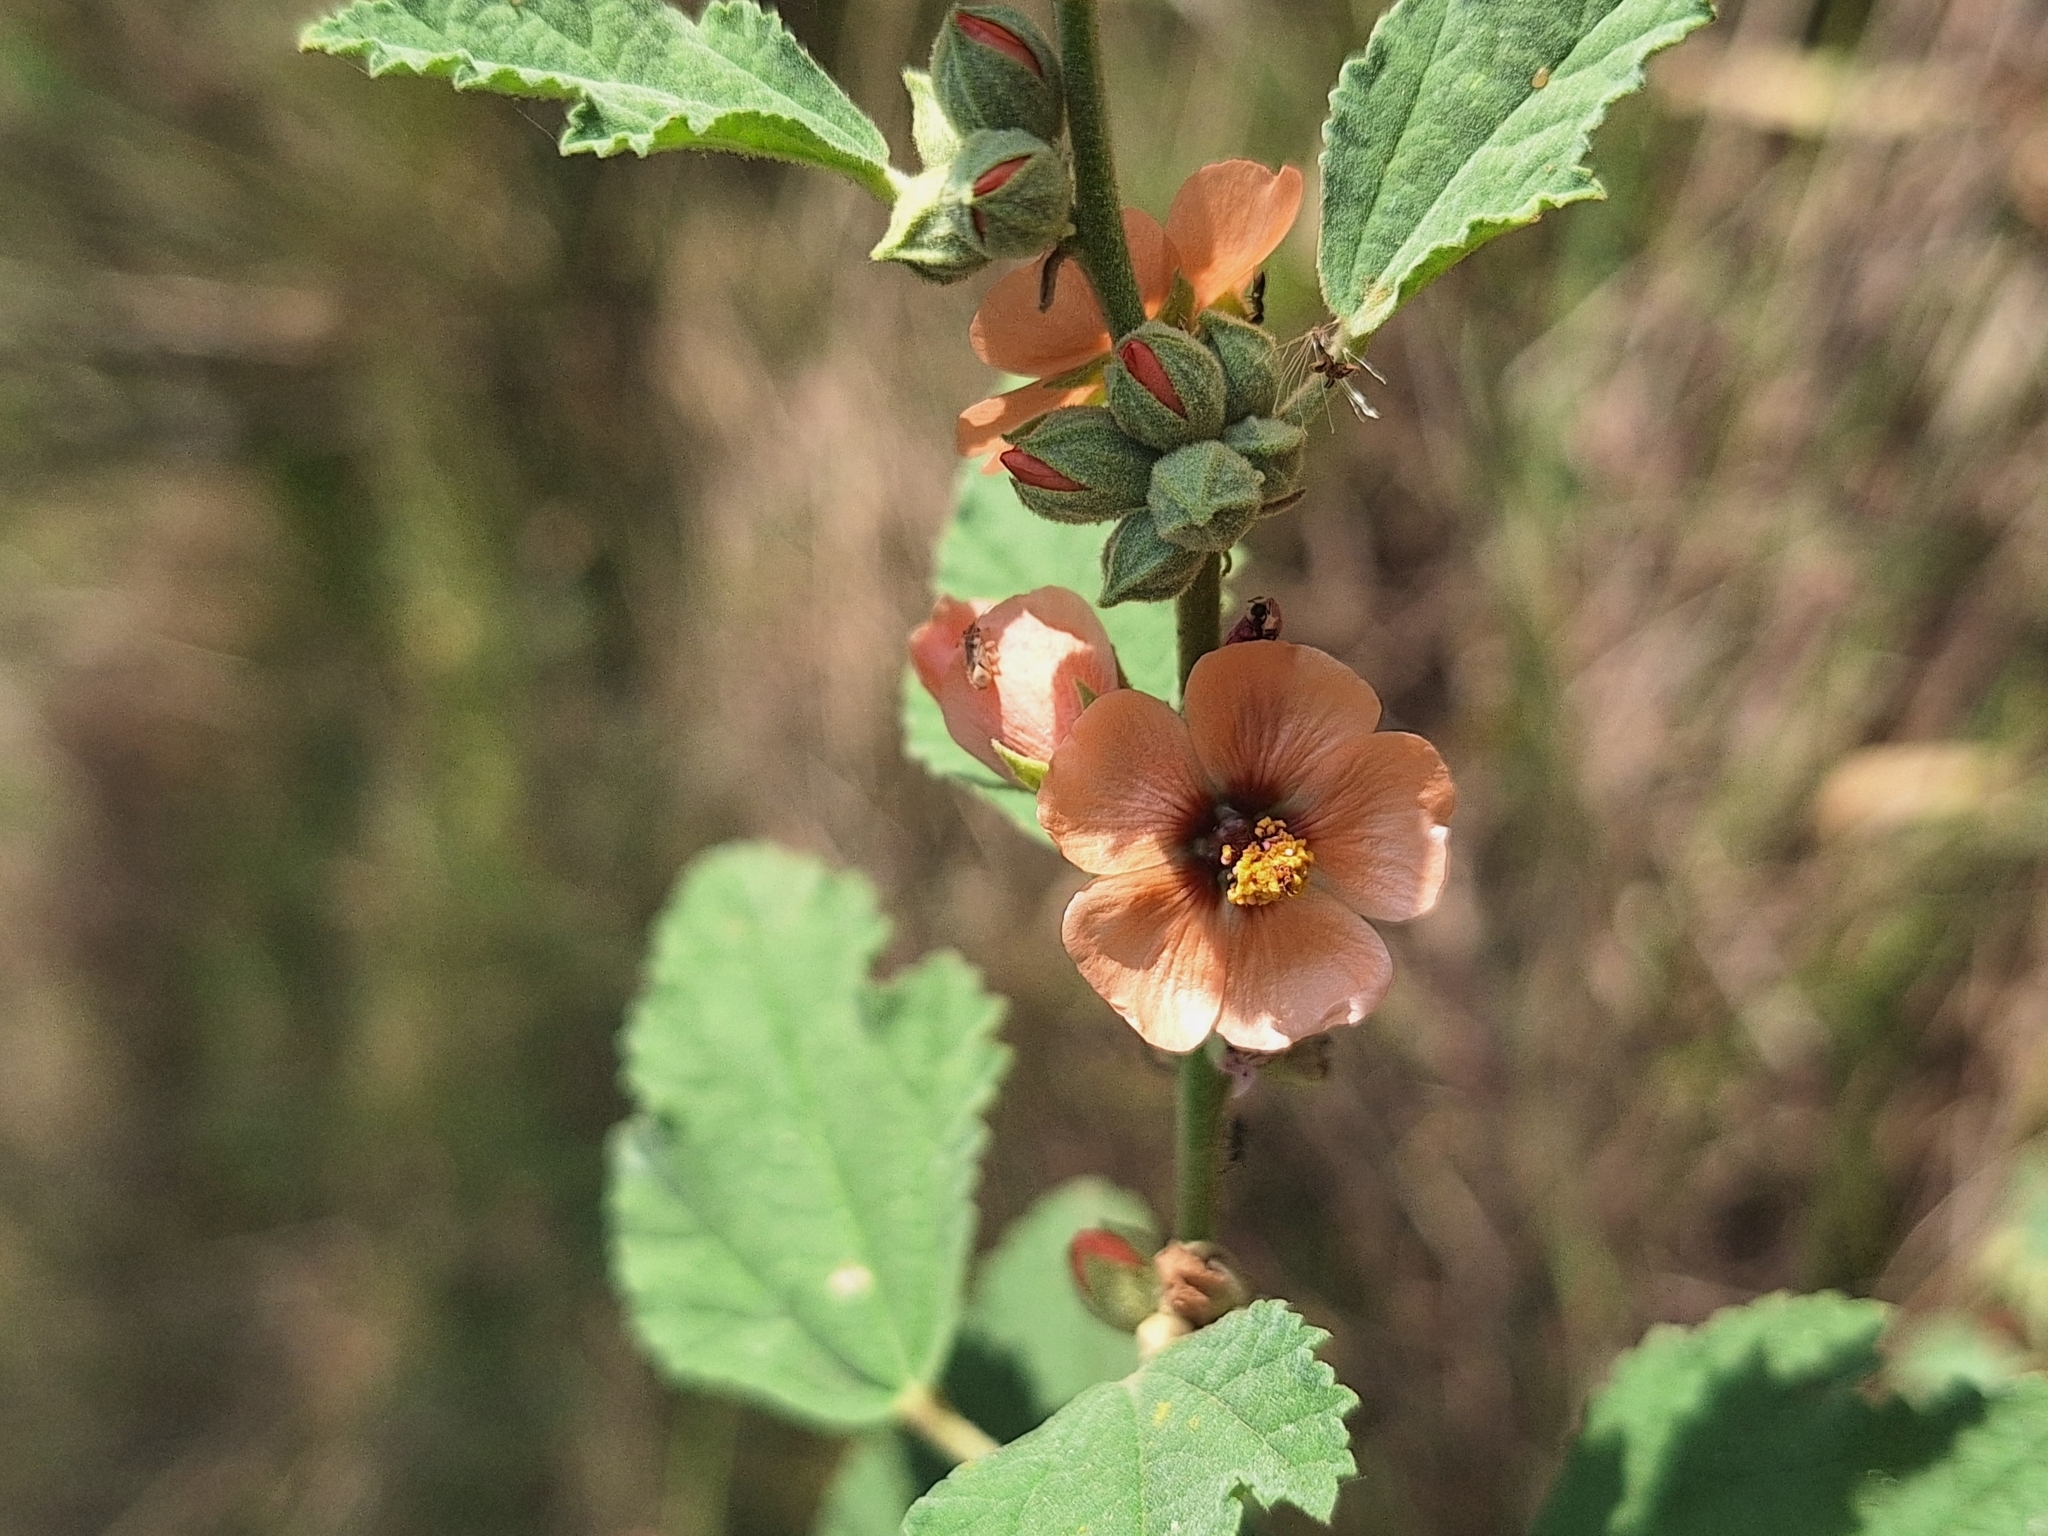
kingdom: Plantae
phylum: Tracheophyta
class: Magnoliopsida
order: Malvales
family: Malvaceae
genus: Sphaeralcea
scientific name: Sphaeralcea bonariensis
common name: Latin globemallow
